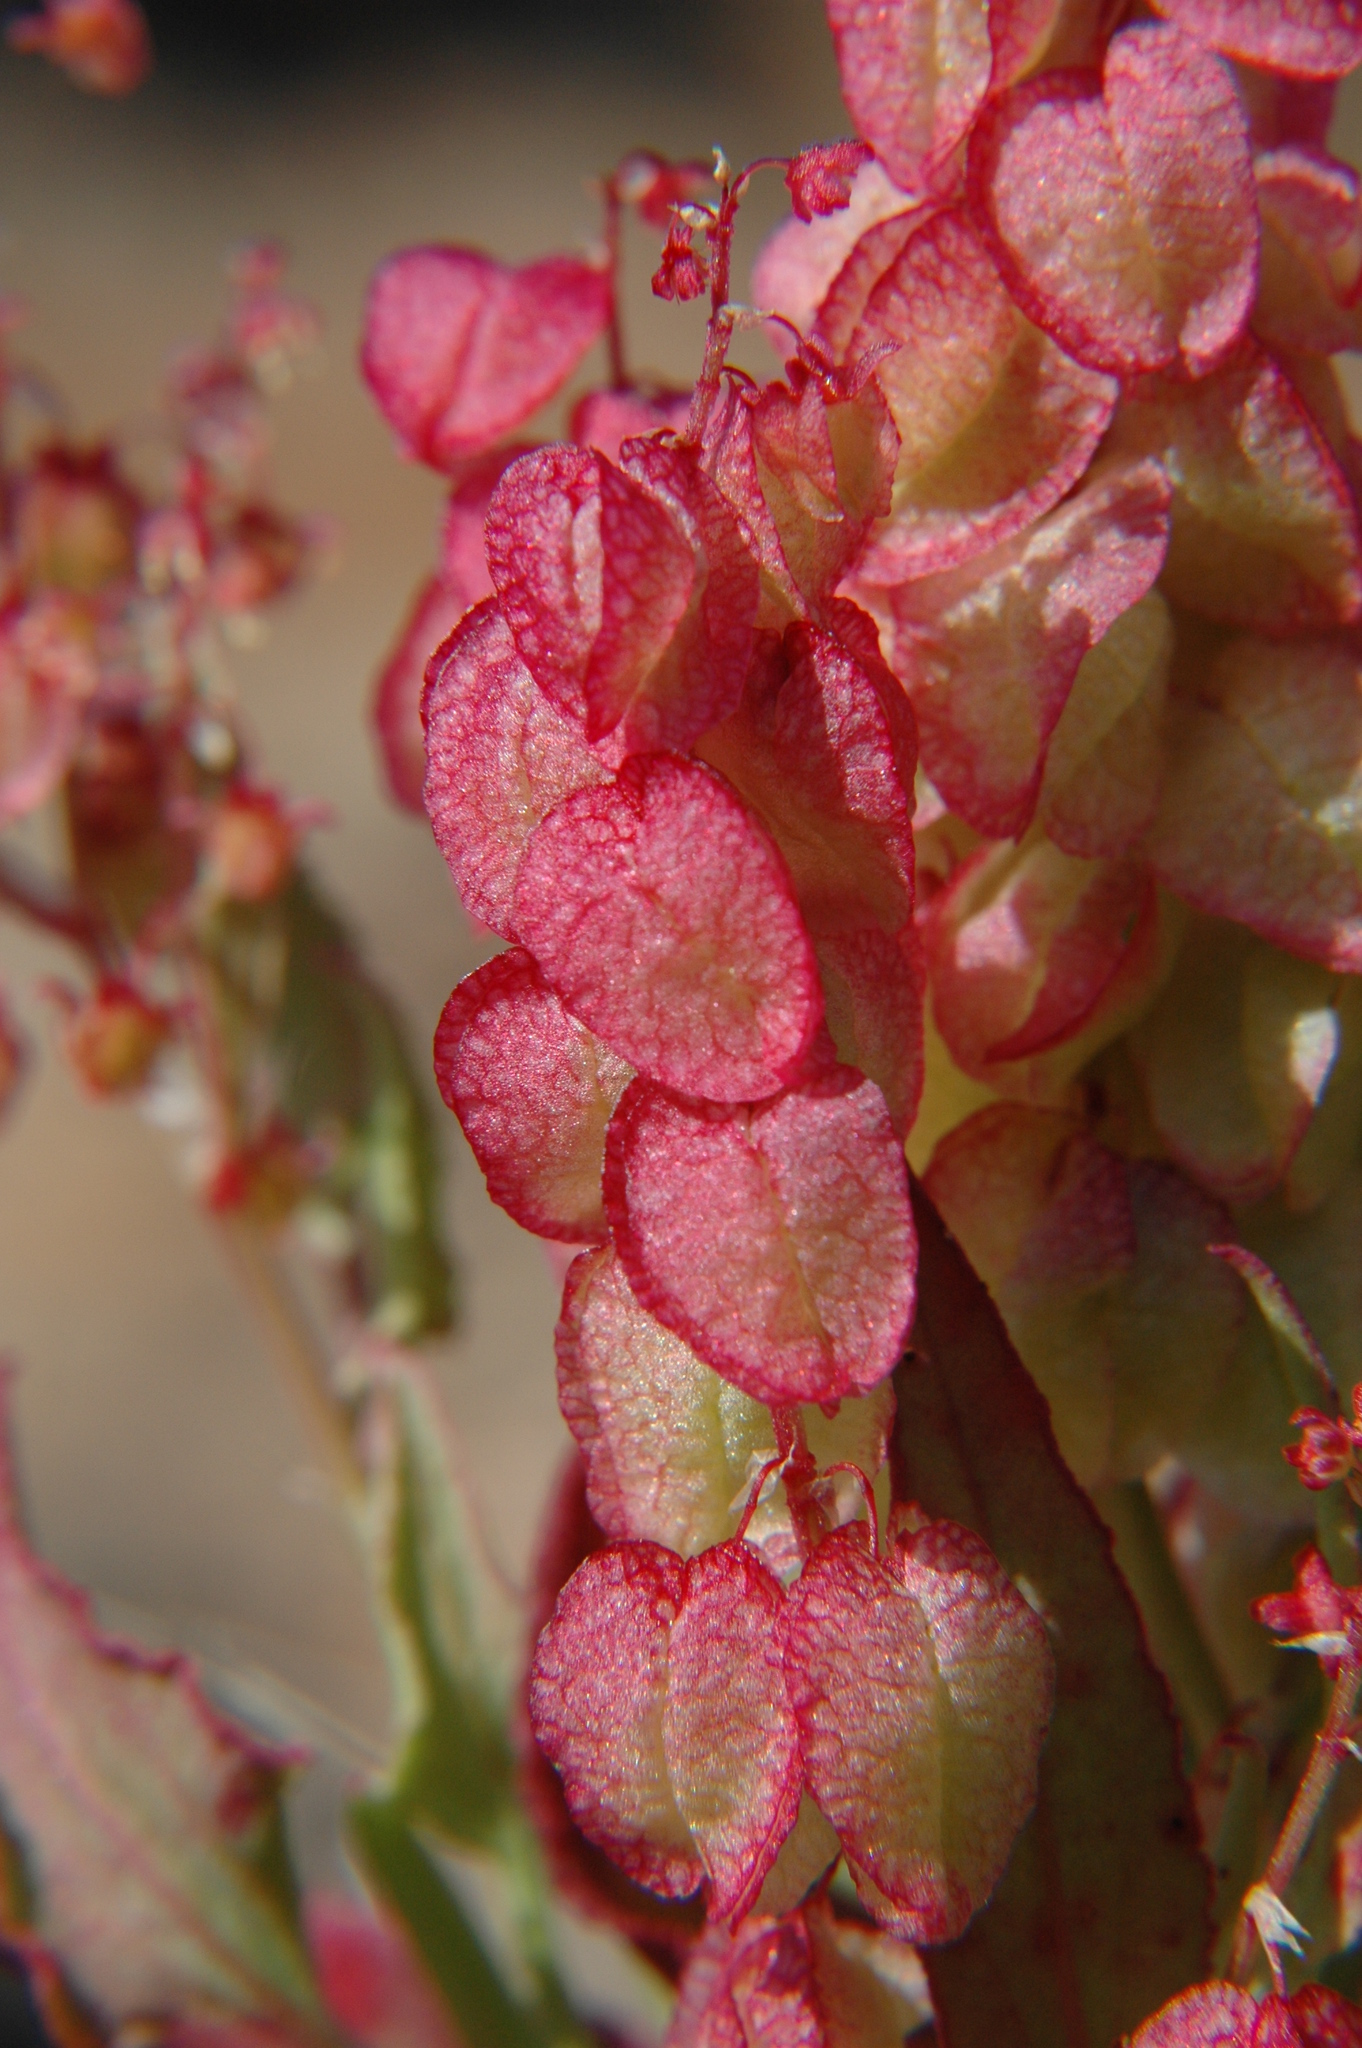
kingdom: Plantae
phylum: Tracheophyta
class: Magnoliopsida
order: Caryophyllales
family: Polygonaceae
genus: Rumex
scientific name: Rumex vesicarius
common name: Bladder dock
